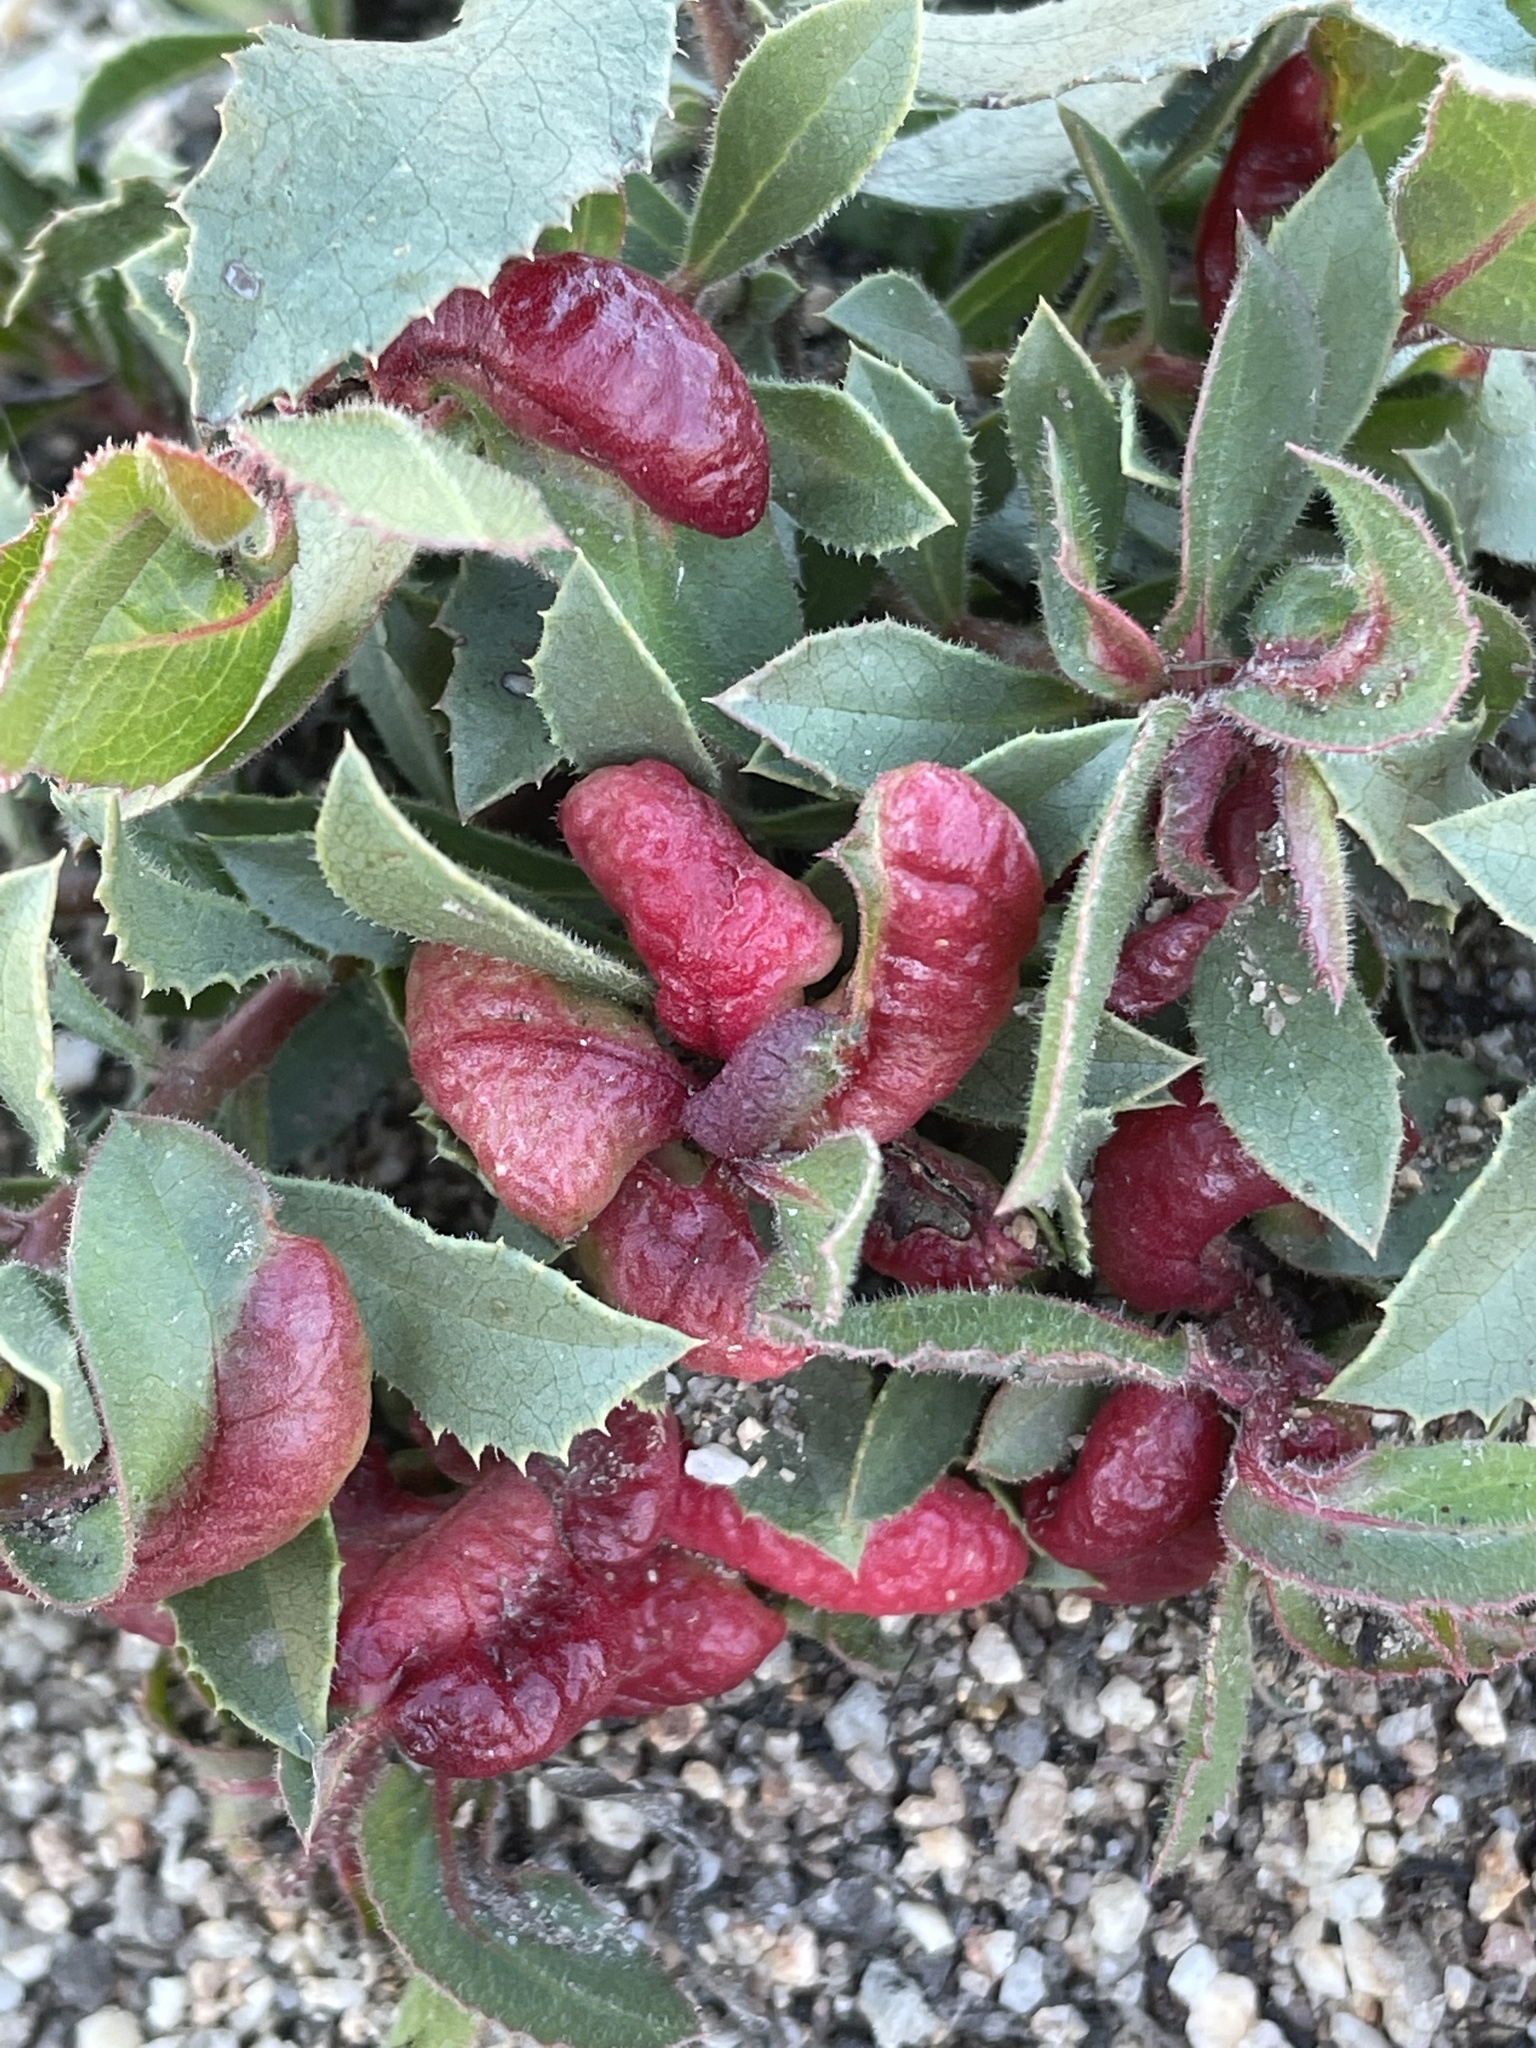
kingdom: Animalia
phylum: Arthropoda
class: Insecta
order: Hemiptera
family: Aphididae
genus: Tamalia
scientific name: Tamalia coweni
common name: Manzanita leafgall aphid
